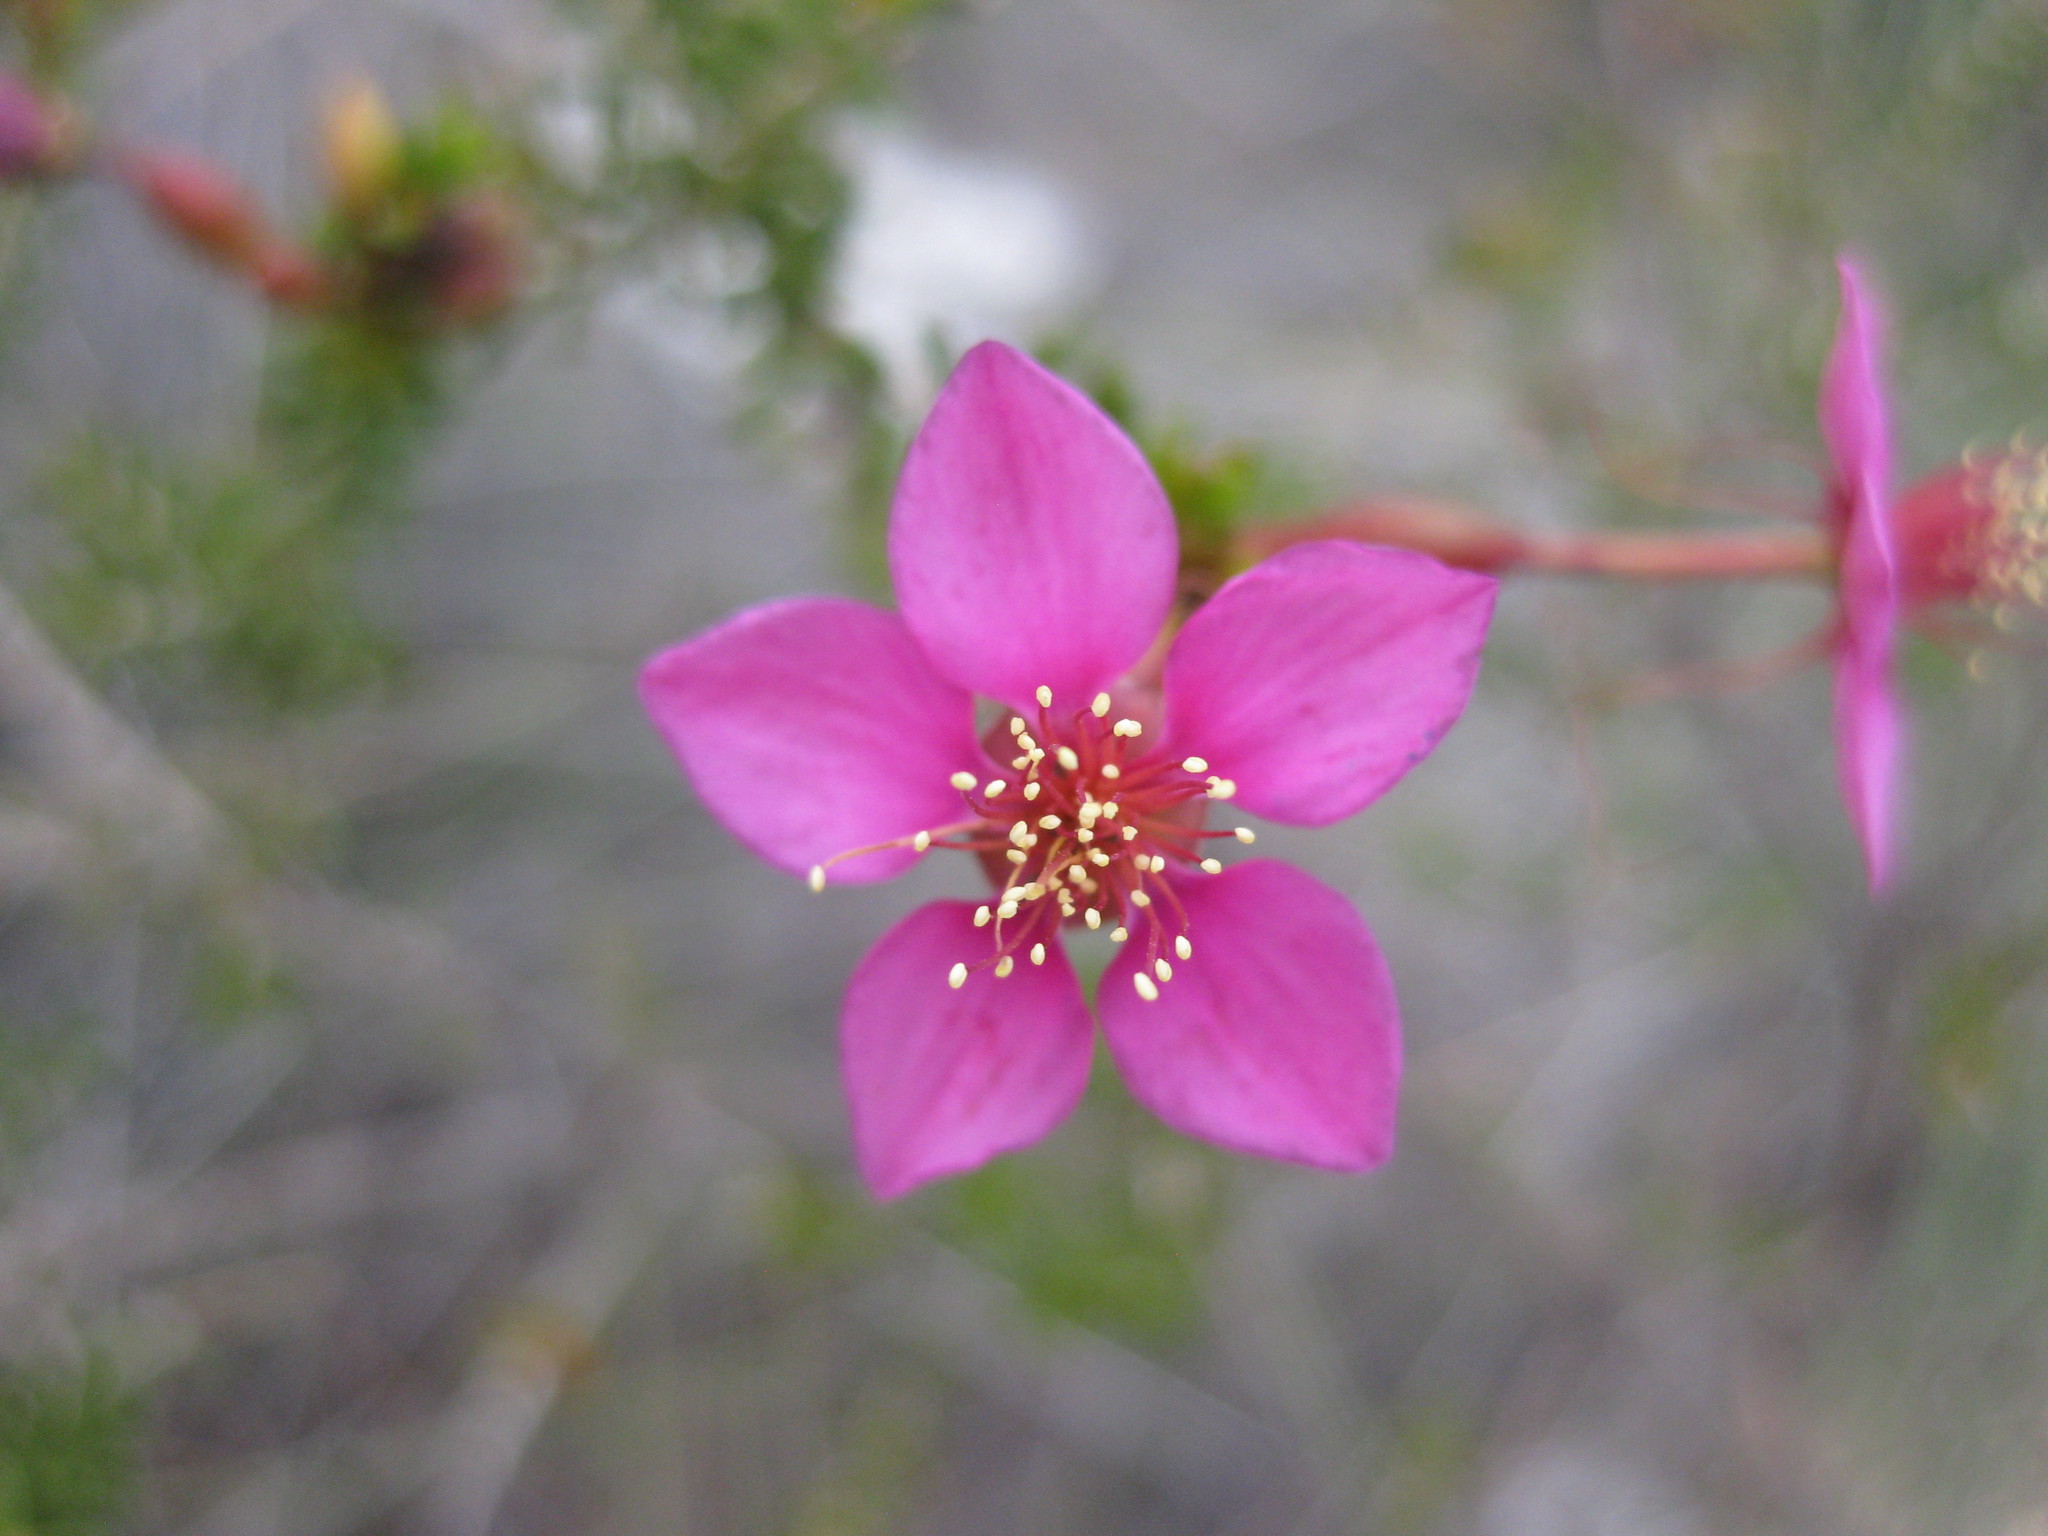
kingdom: Plantae
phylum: Tracheophyta
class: Magnoliopsida
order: Myrtales
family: Myrtaceae
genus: Calytrix
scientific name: Calytrix brevifolia
